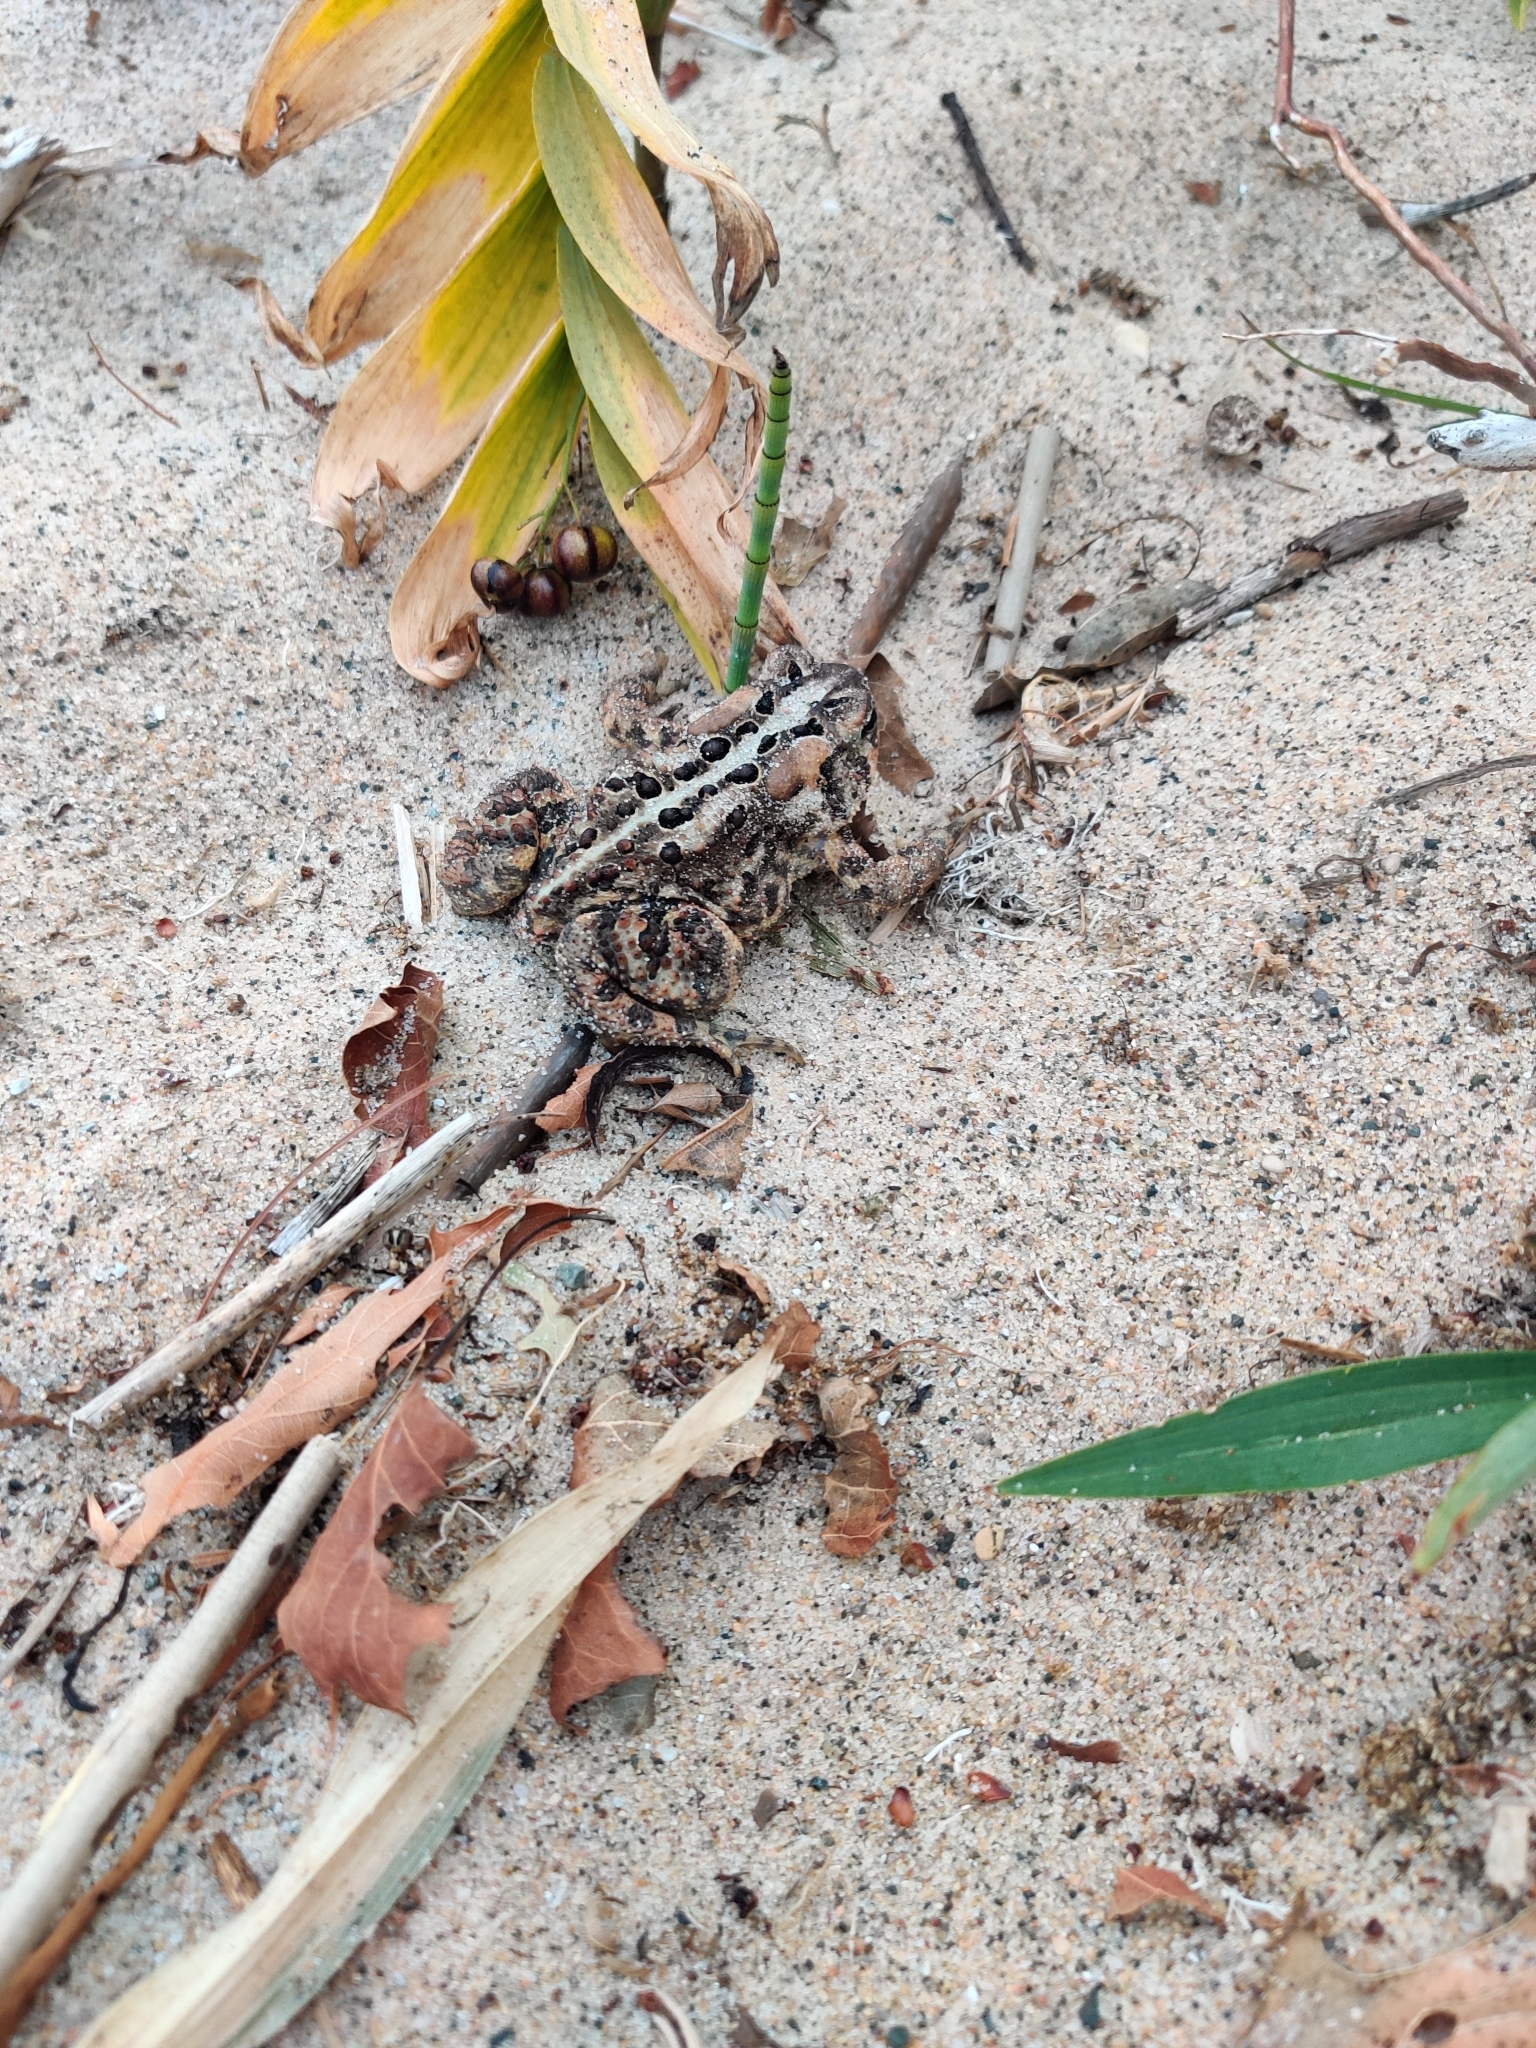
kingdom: Animalia
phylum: Chordata
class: Amphibia
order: Anura
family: Bufonidae
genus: Anaxyrus
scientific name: Anaxyrus americanus
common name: American toad
